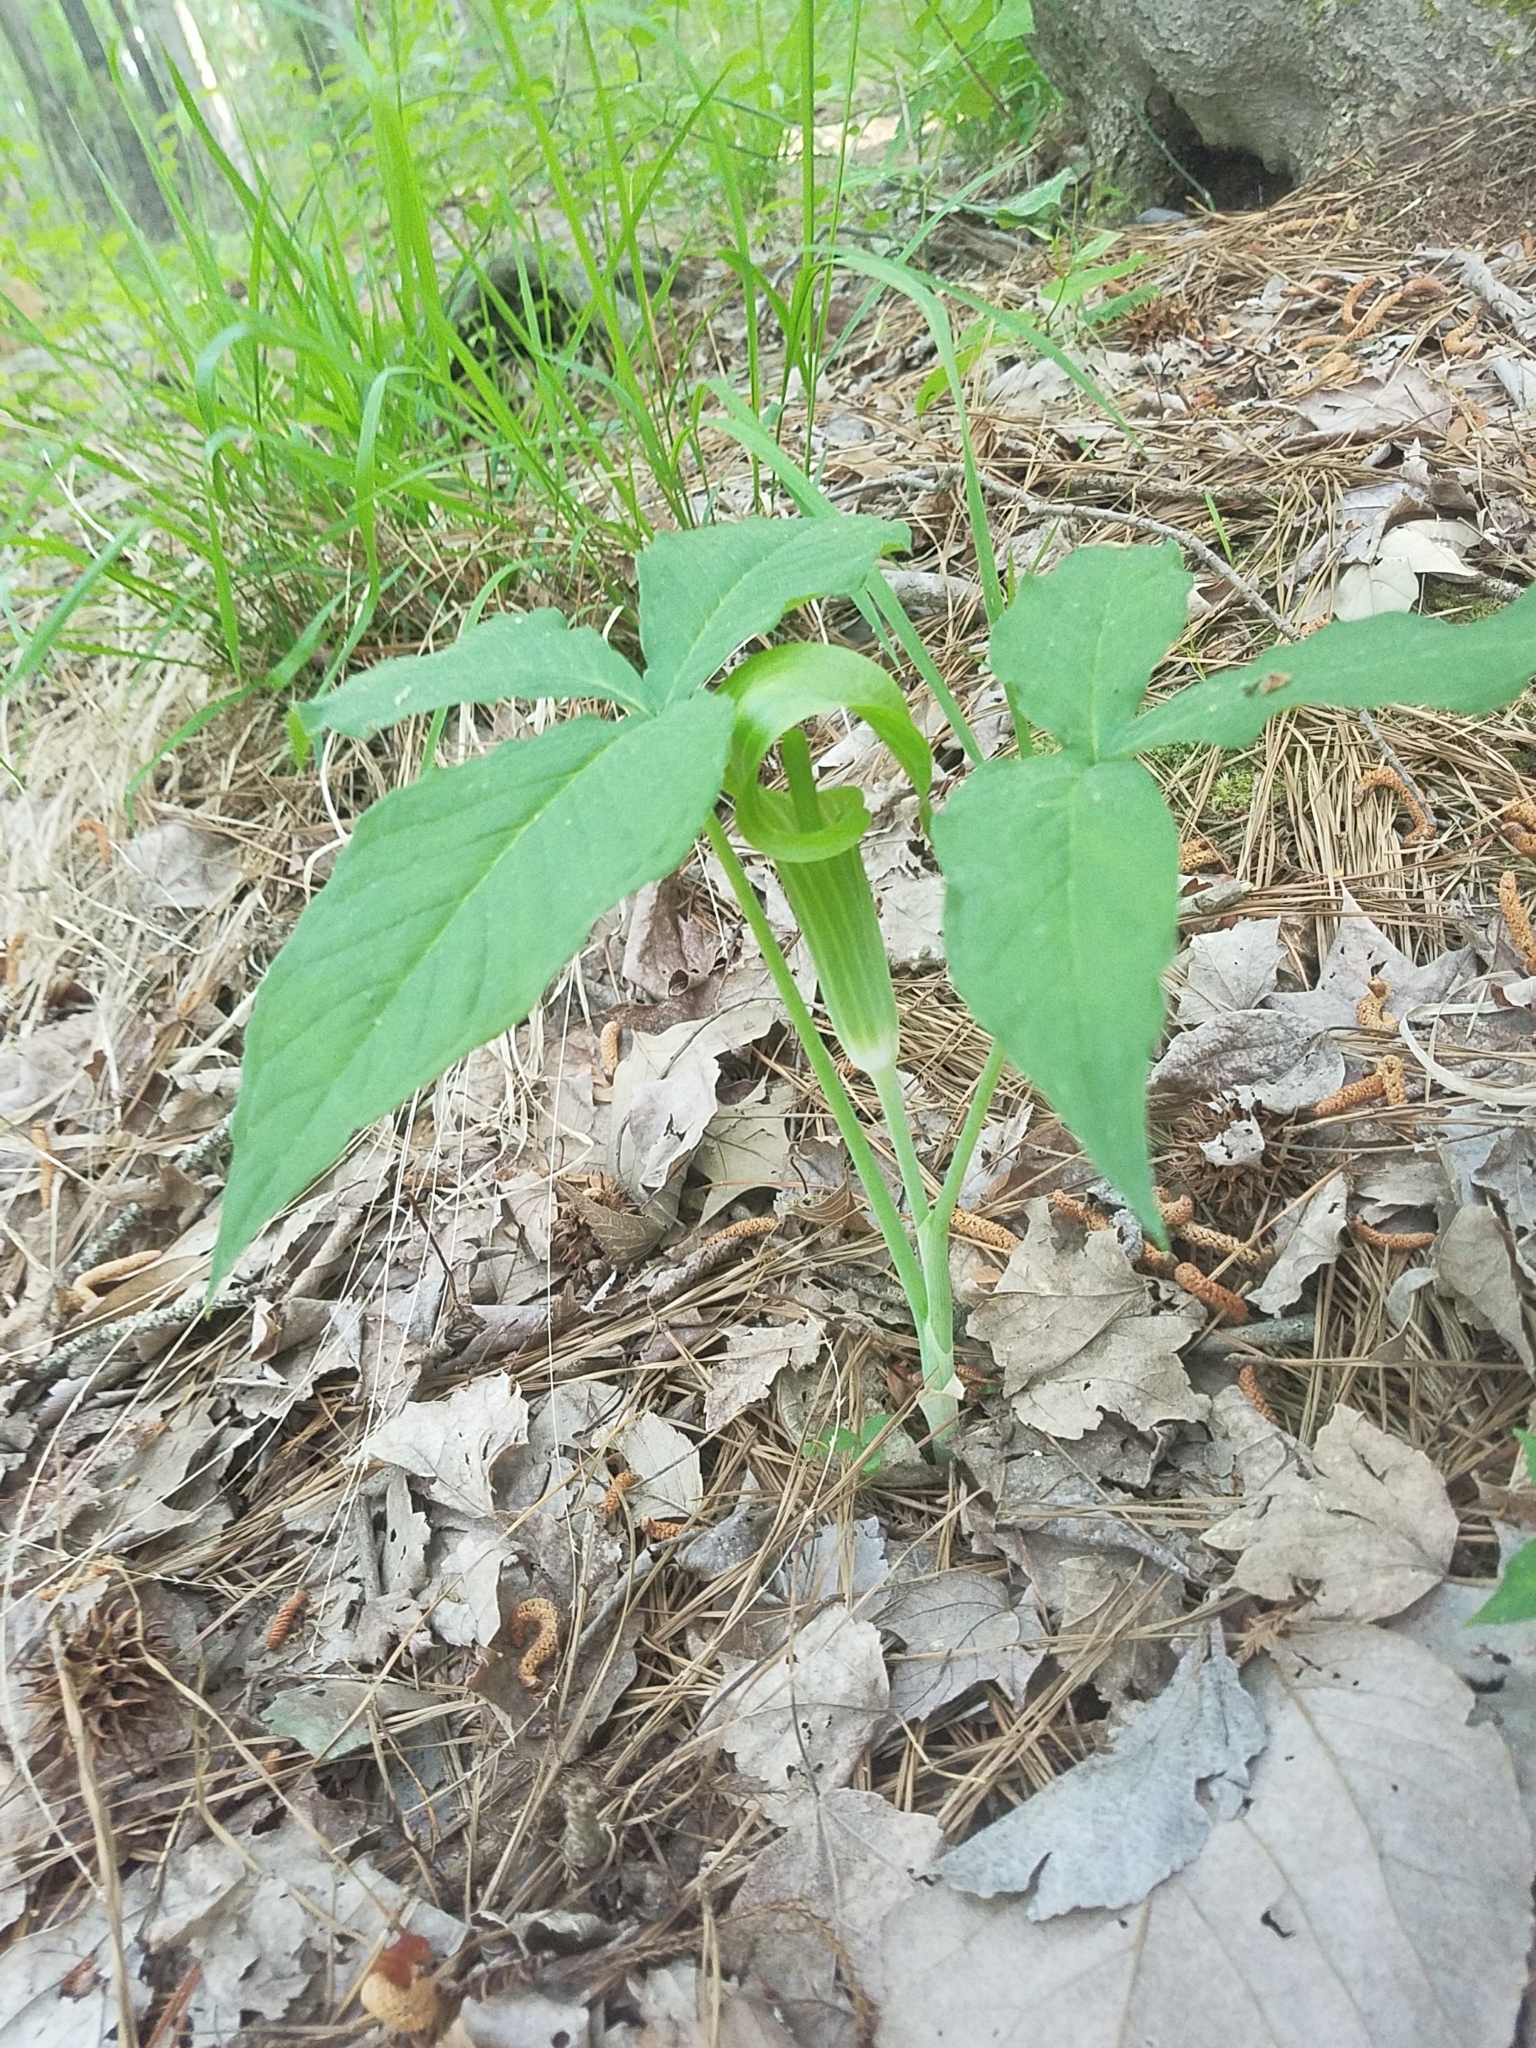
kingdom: Plantae
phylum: Tracheophyta
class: Liliopsida
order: Alismatales
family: Araceae
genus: Arisaema
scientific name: Arisaema triphyllum
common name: Jack-in-the-pulpit
